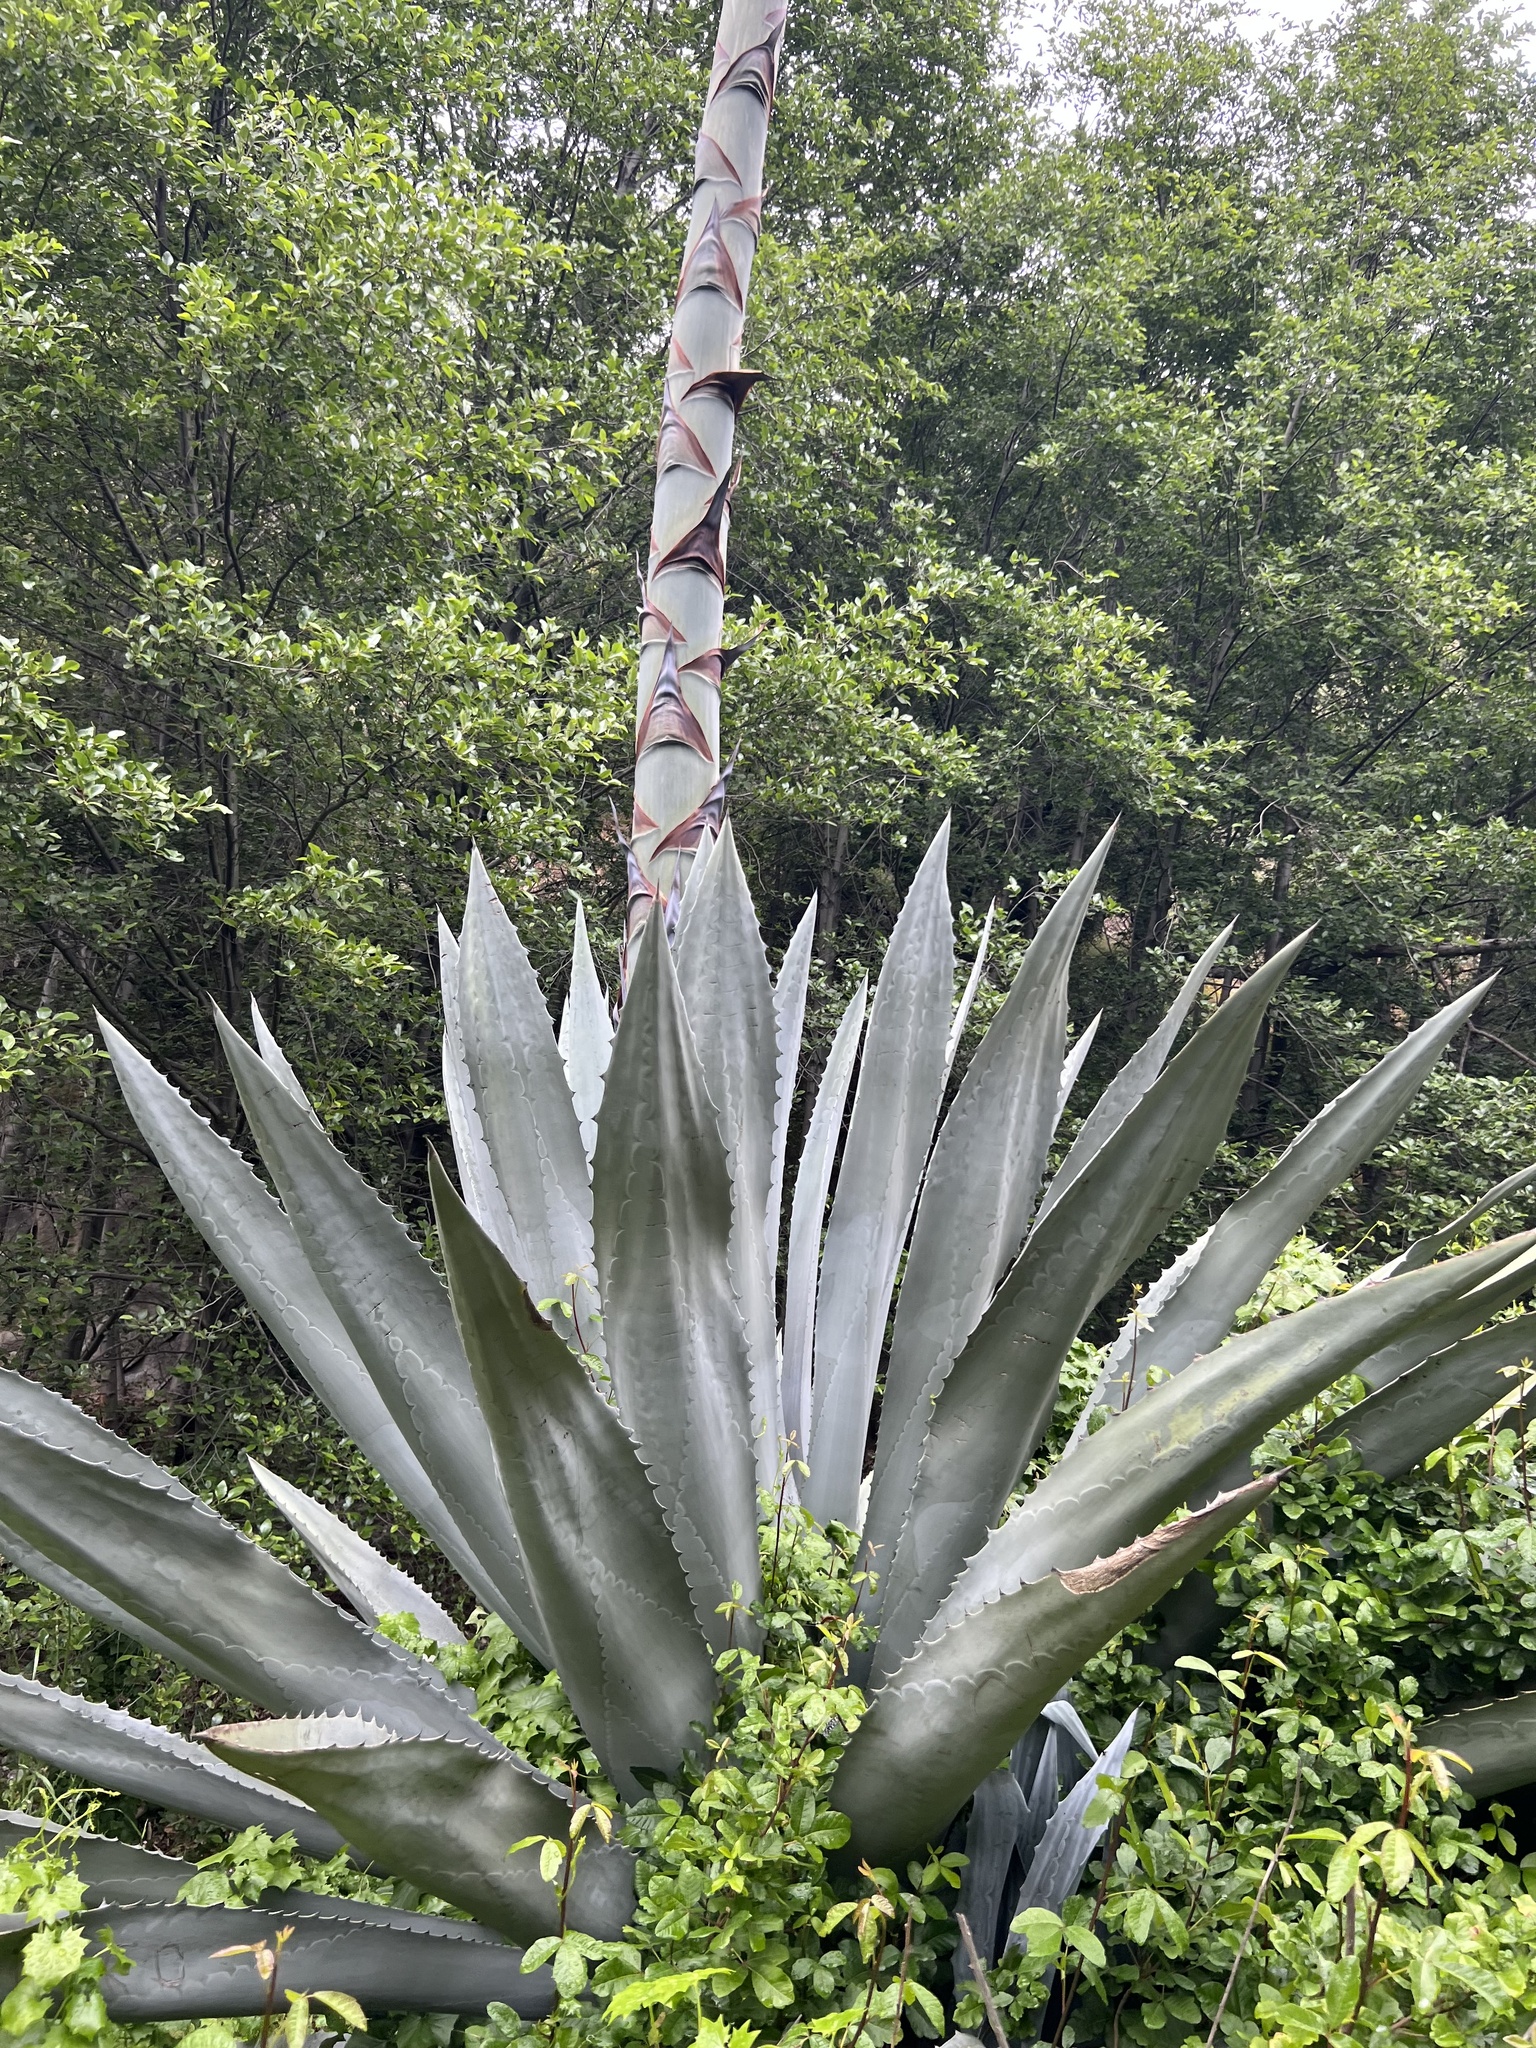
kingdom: Plantae
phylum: Tracheophyta
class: Liliopsida
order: Asparagales
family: Asparagaceae
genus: Agave
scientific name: Agave americana
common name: Centuryplant
